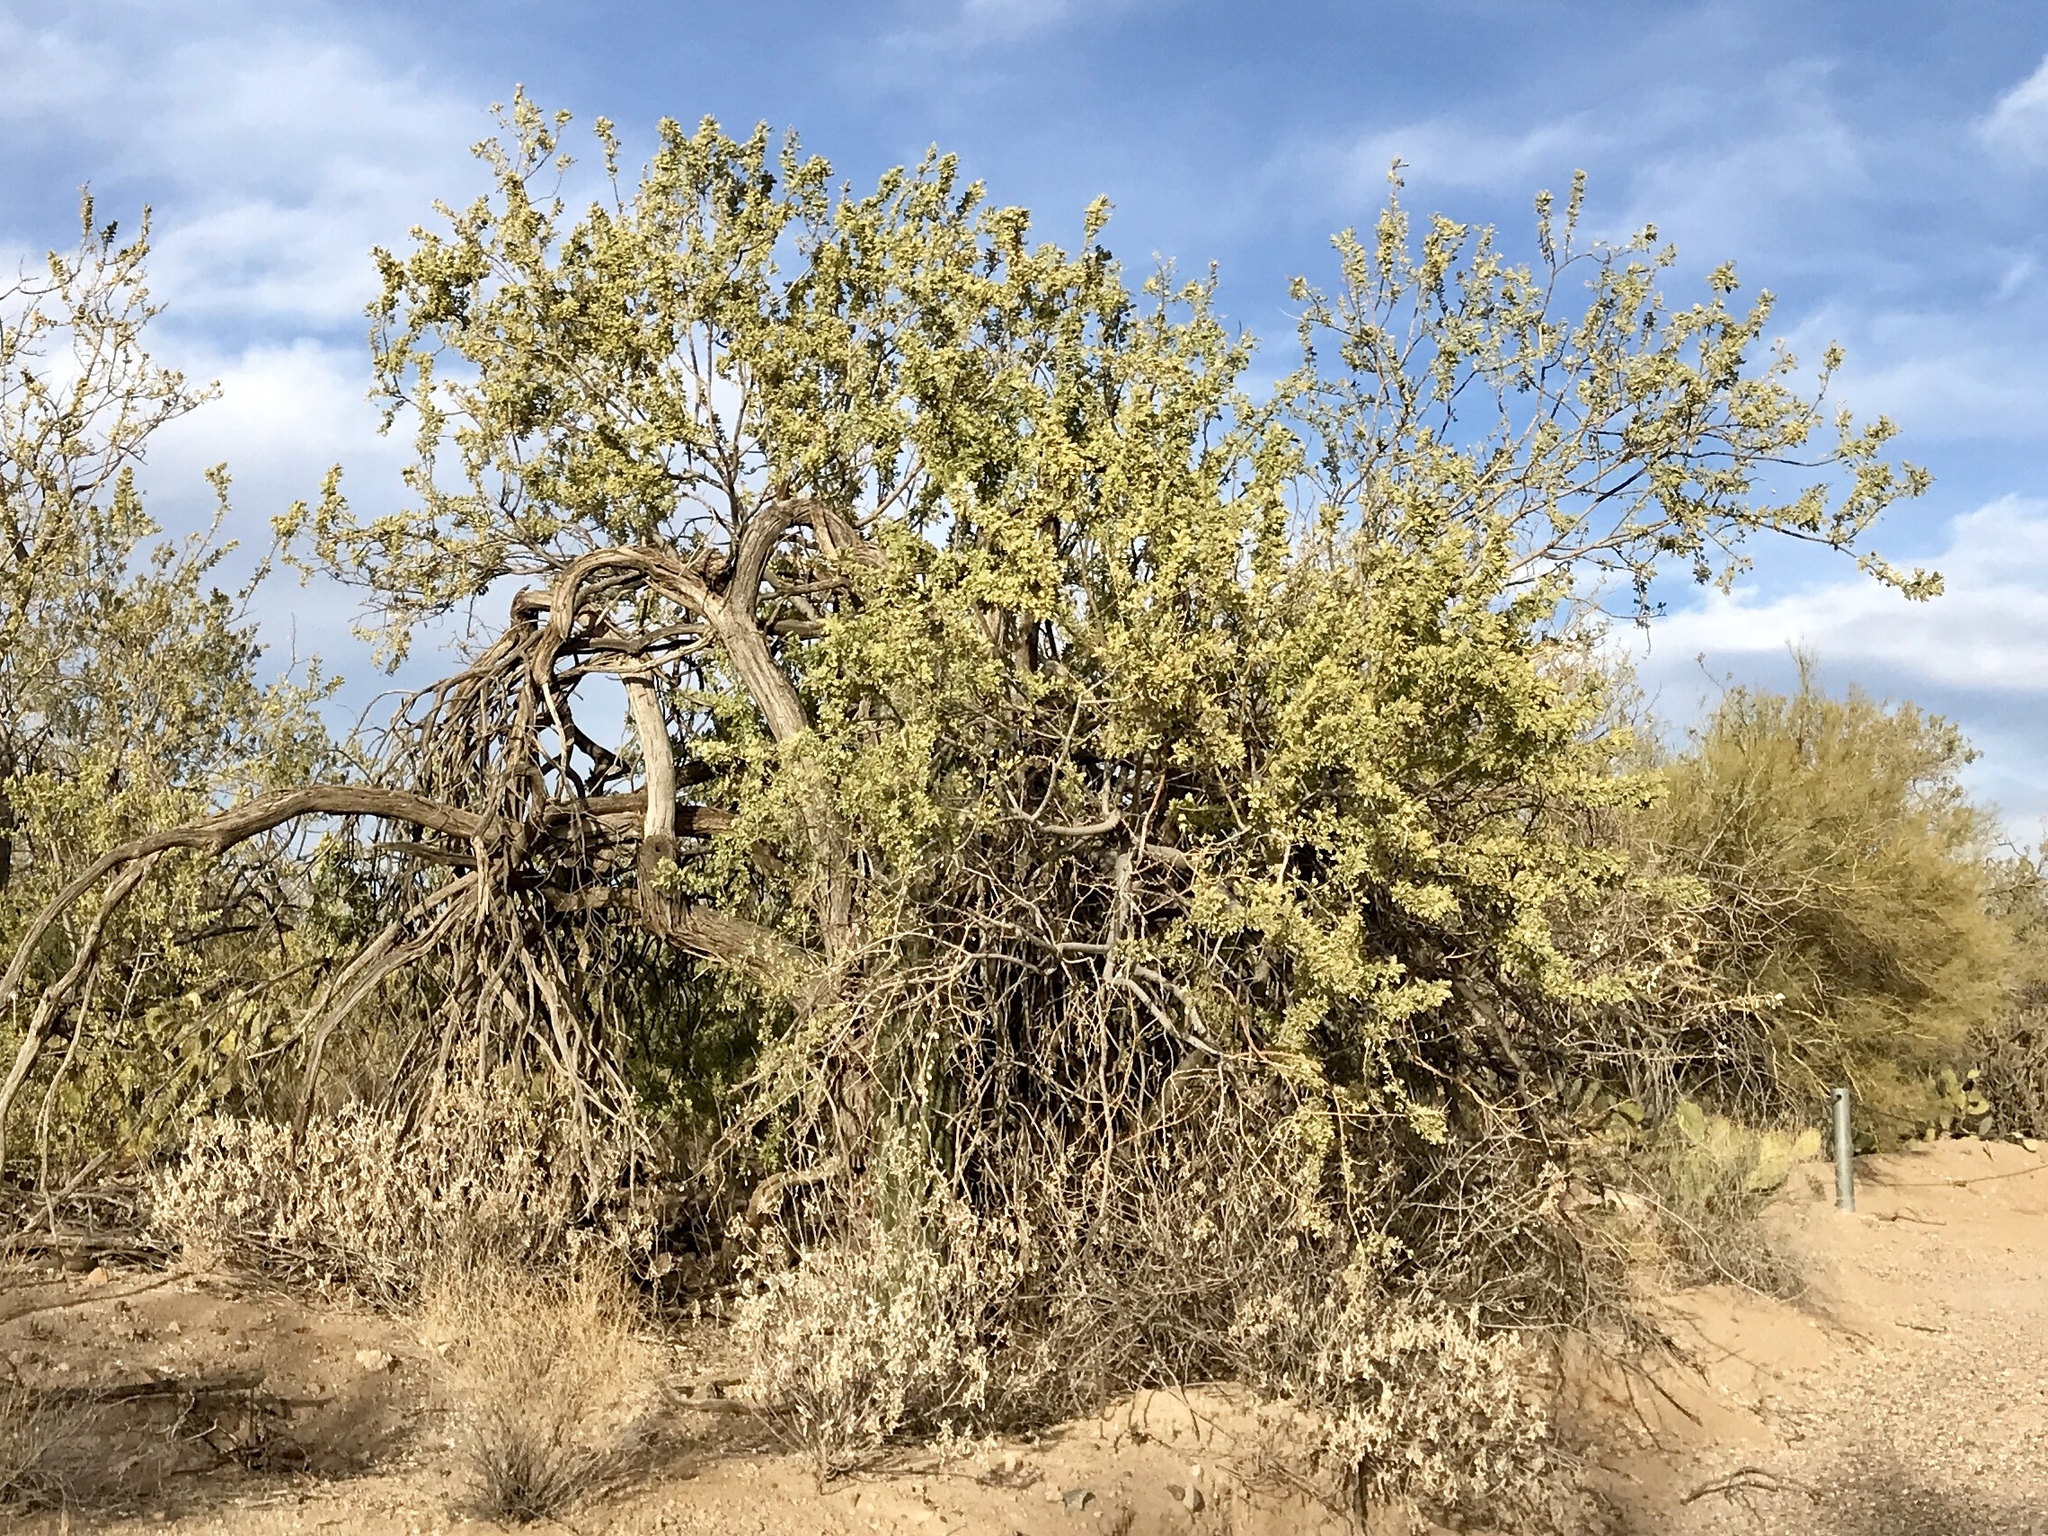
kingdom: Plantae
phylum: Tracheophyta
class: Magnoliopsida
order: Fabales
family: Fabaceae
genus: Olneya
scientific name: Olneya tesota
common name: Desert ironwood
